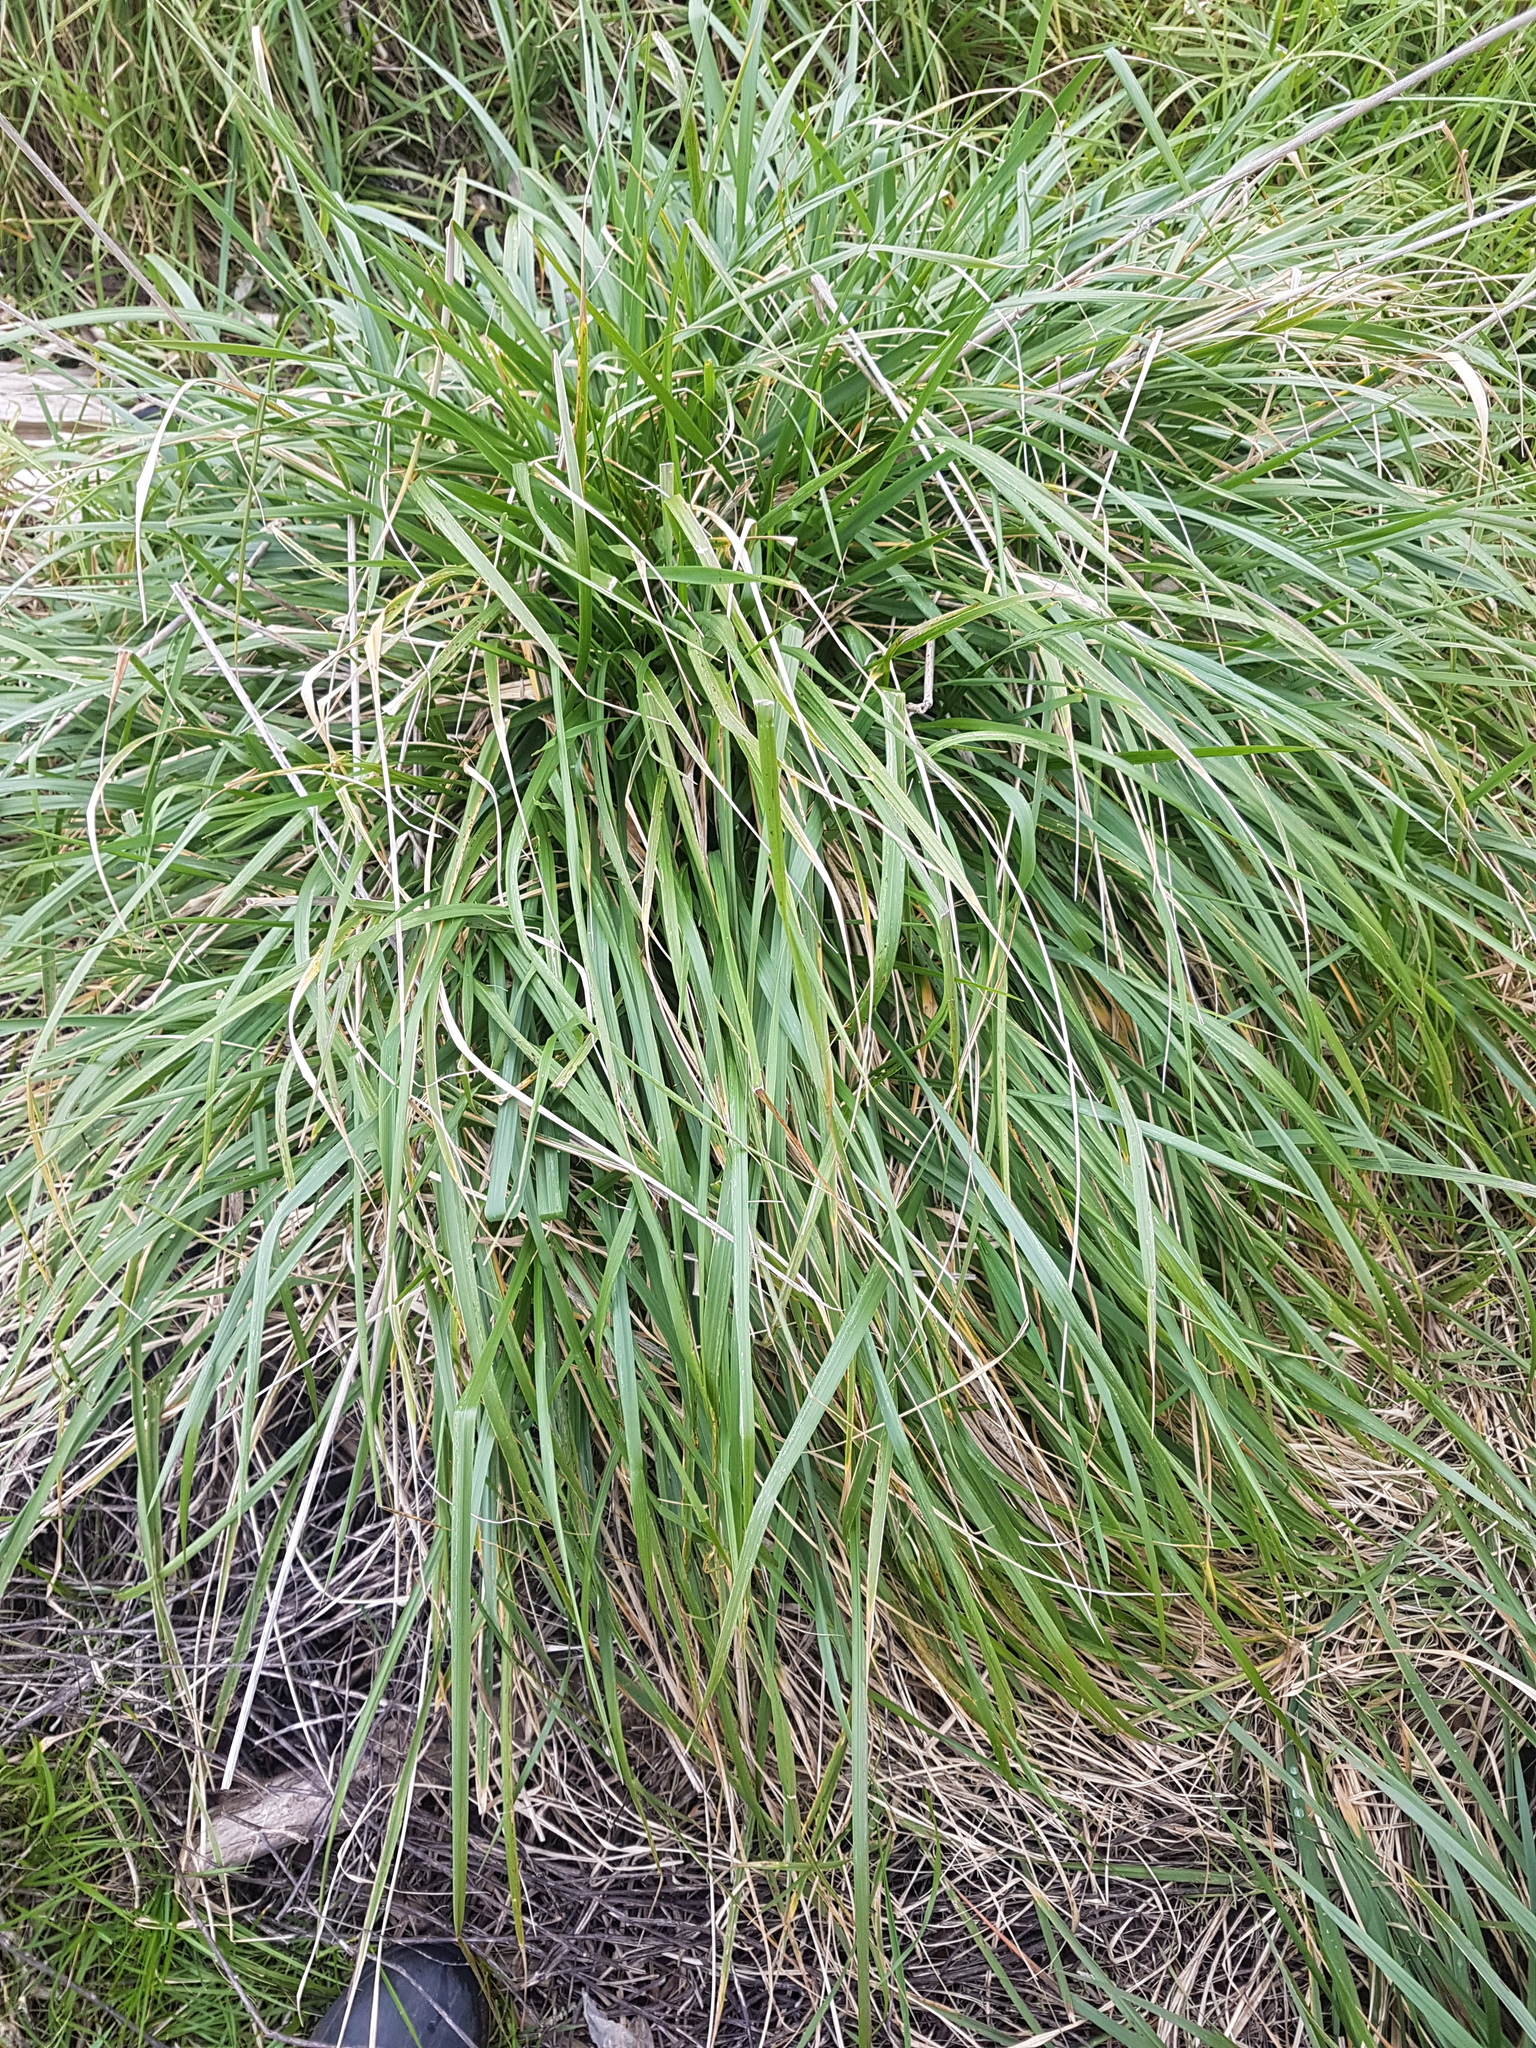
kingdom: Plantae
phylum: Tracheophyta
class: Liliopsida
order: Poales
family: Poaceae
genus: Lolium
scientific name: Lolium arundinaceum
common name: Reed fescue
